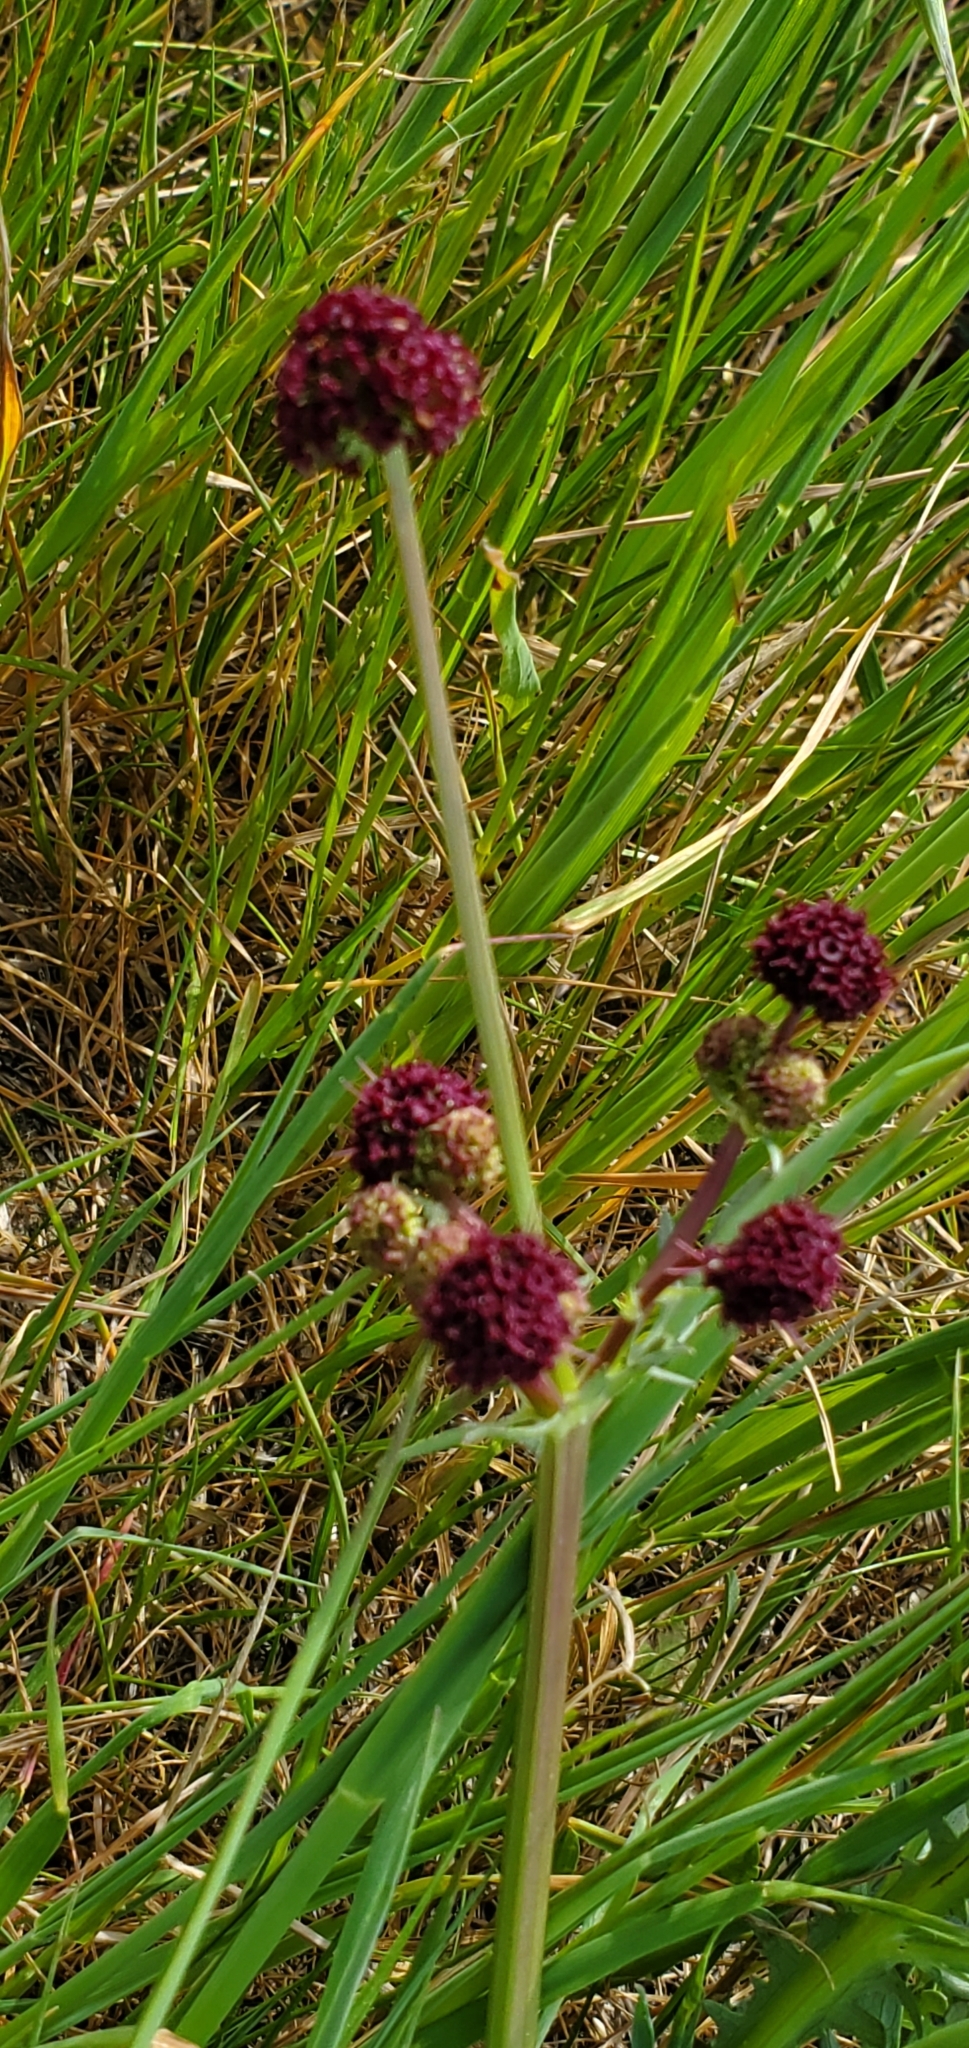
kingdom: Plantae
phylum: Tracheophyta
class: Magnoliopsida
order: Apiales
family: Apiaceae
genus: Sanicula
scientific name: Sanicula bipinnatifida
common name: Shoe-buttons
